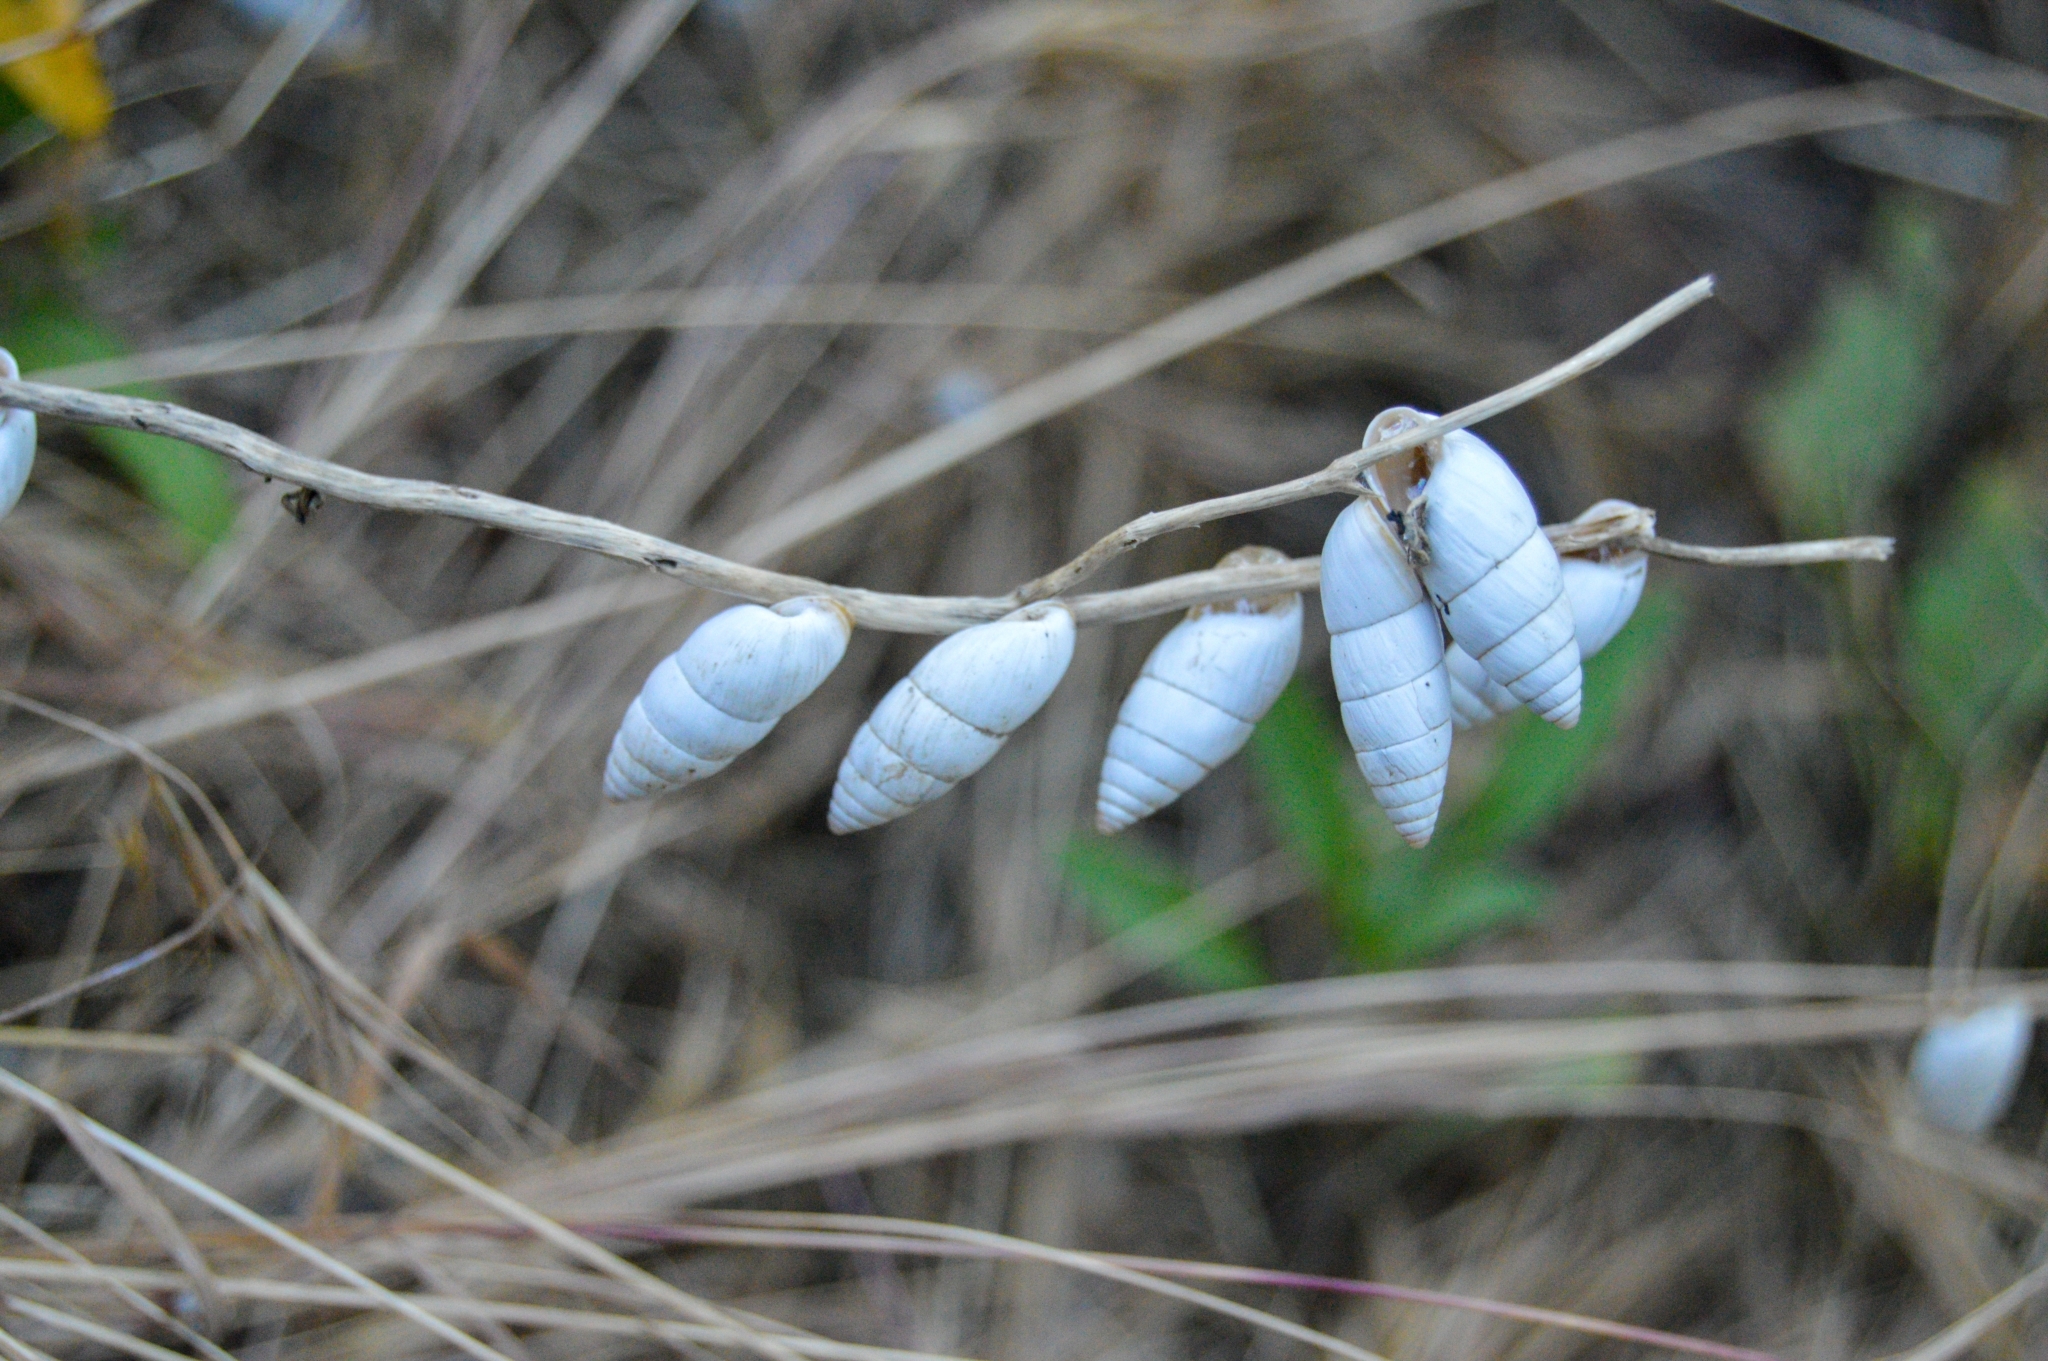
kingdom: Animalia
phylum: Mollusca
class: Gastropoda
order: Stylommatophora
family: Enidae
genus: Brephulopsis
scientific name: Brephulopsis cylindrica
